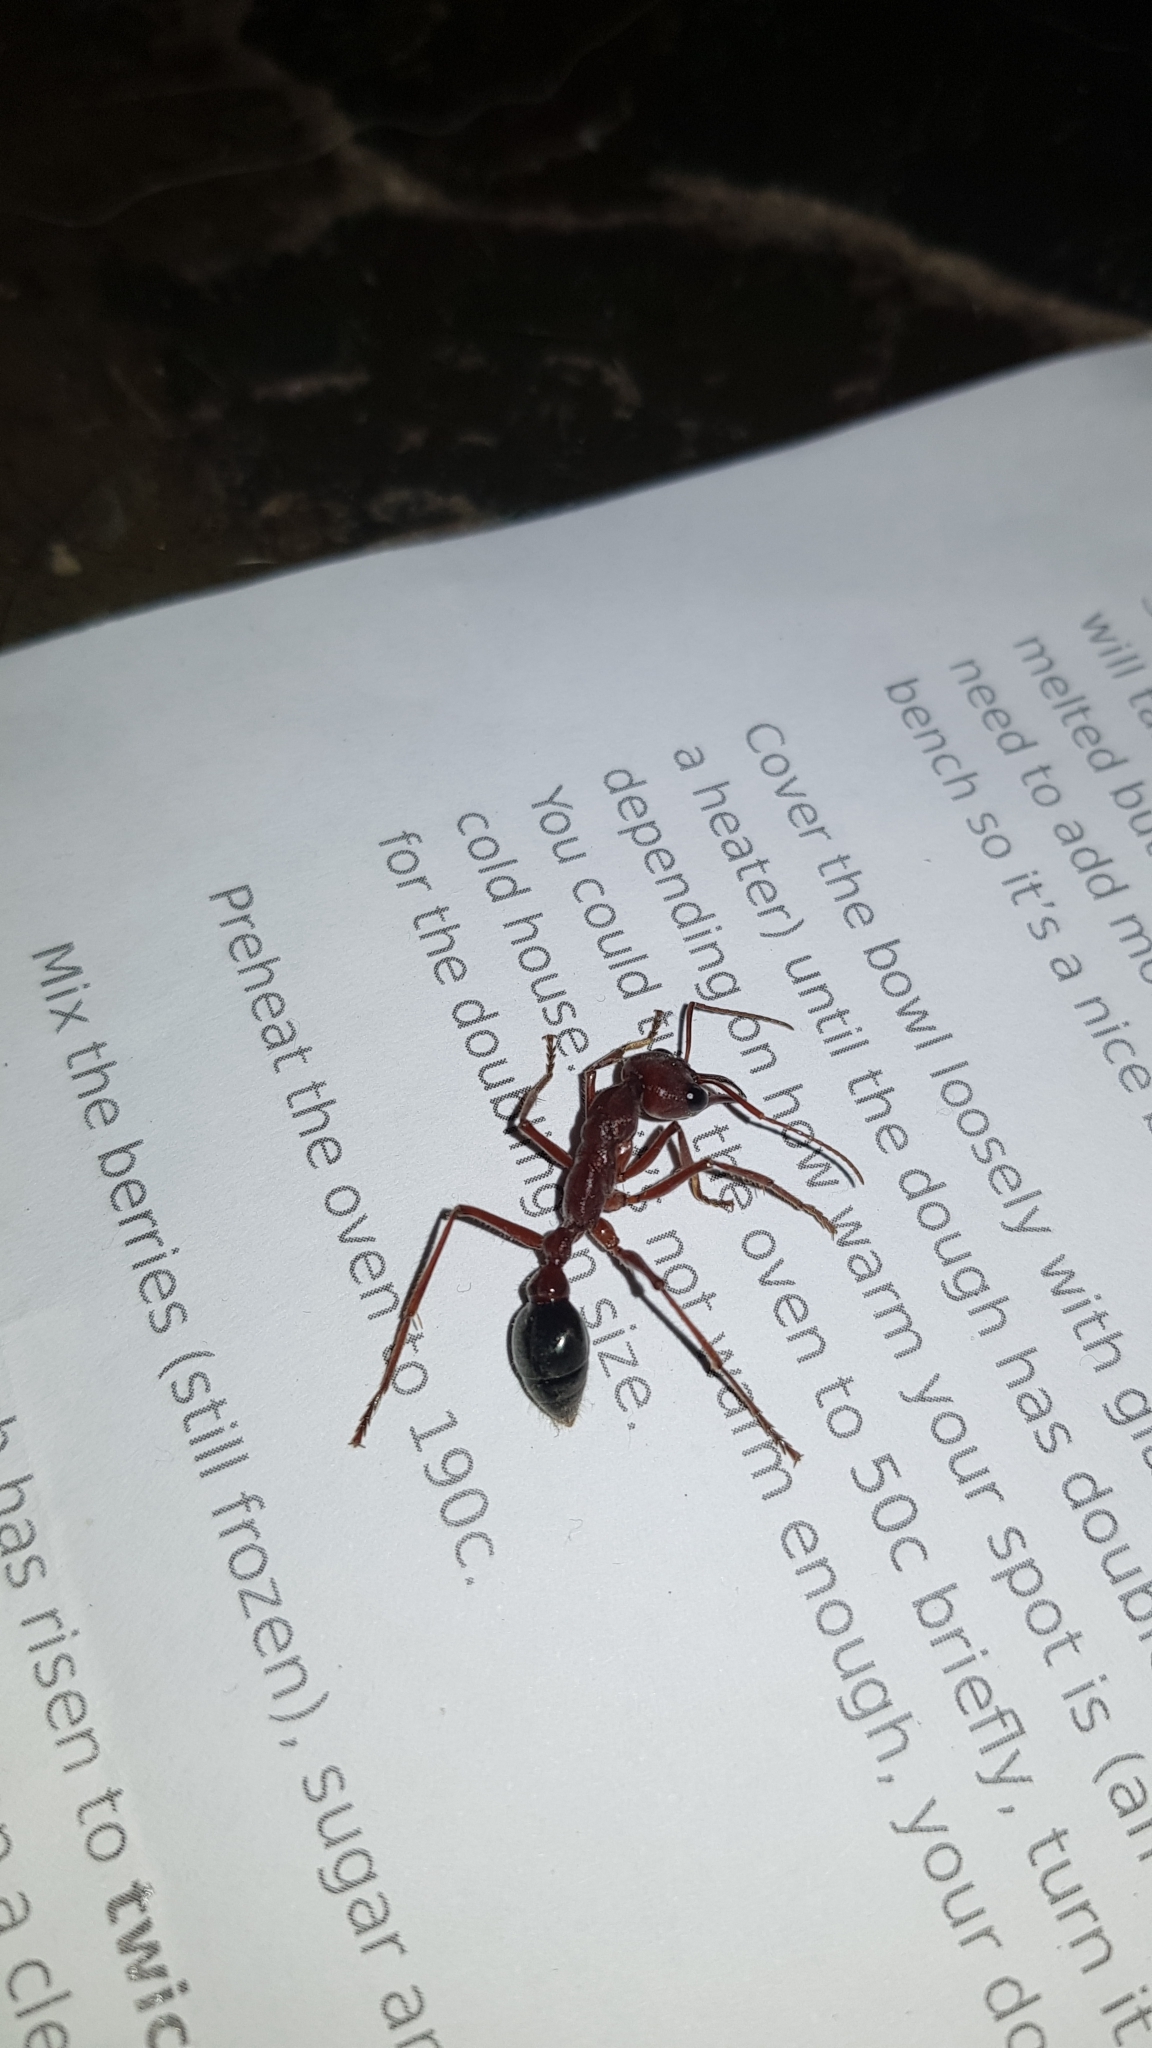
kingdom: Animalia
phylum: Arthropoda
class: Insecta
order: Hymenoptera
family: Formicidae
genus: Myrmecia
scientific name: Myrmecia brevinoda
